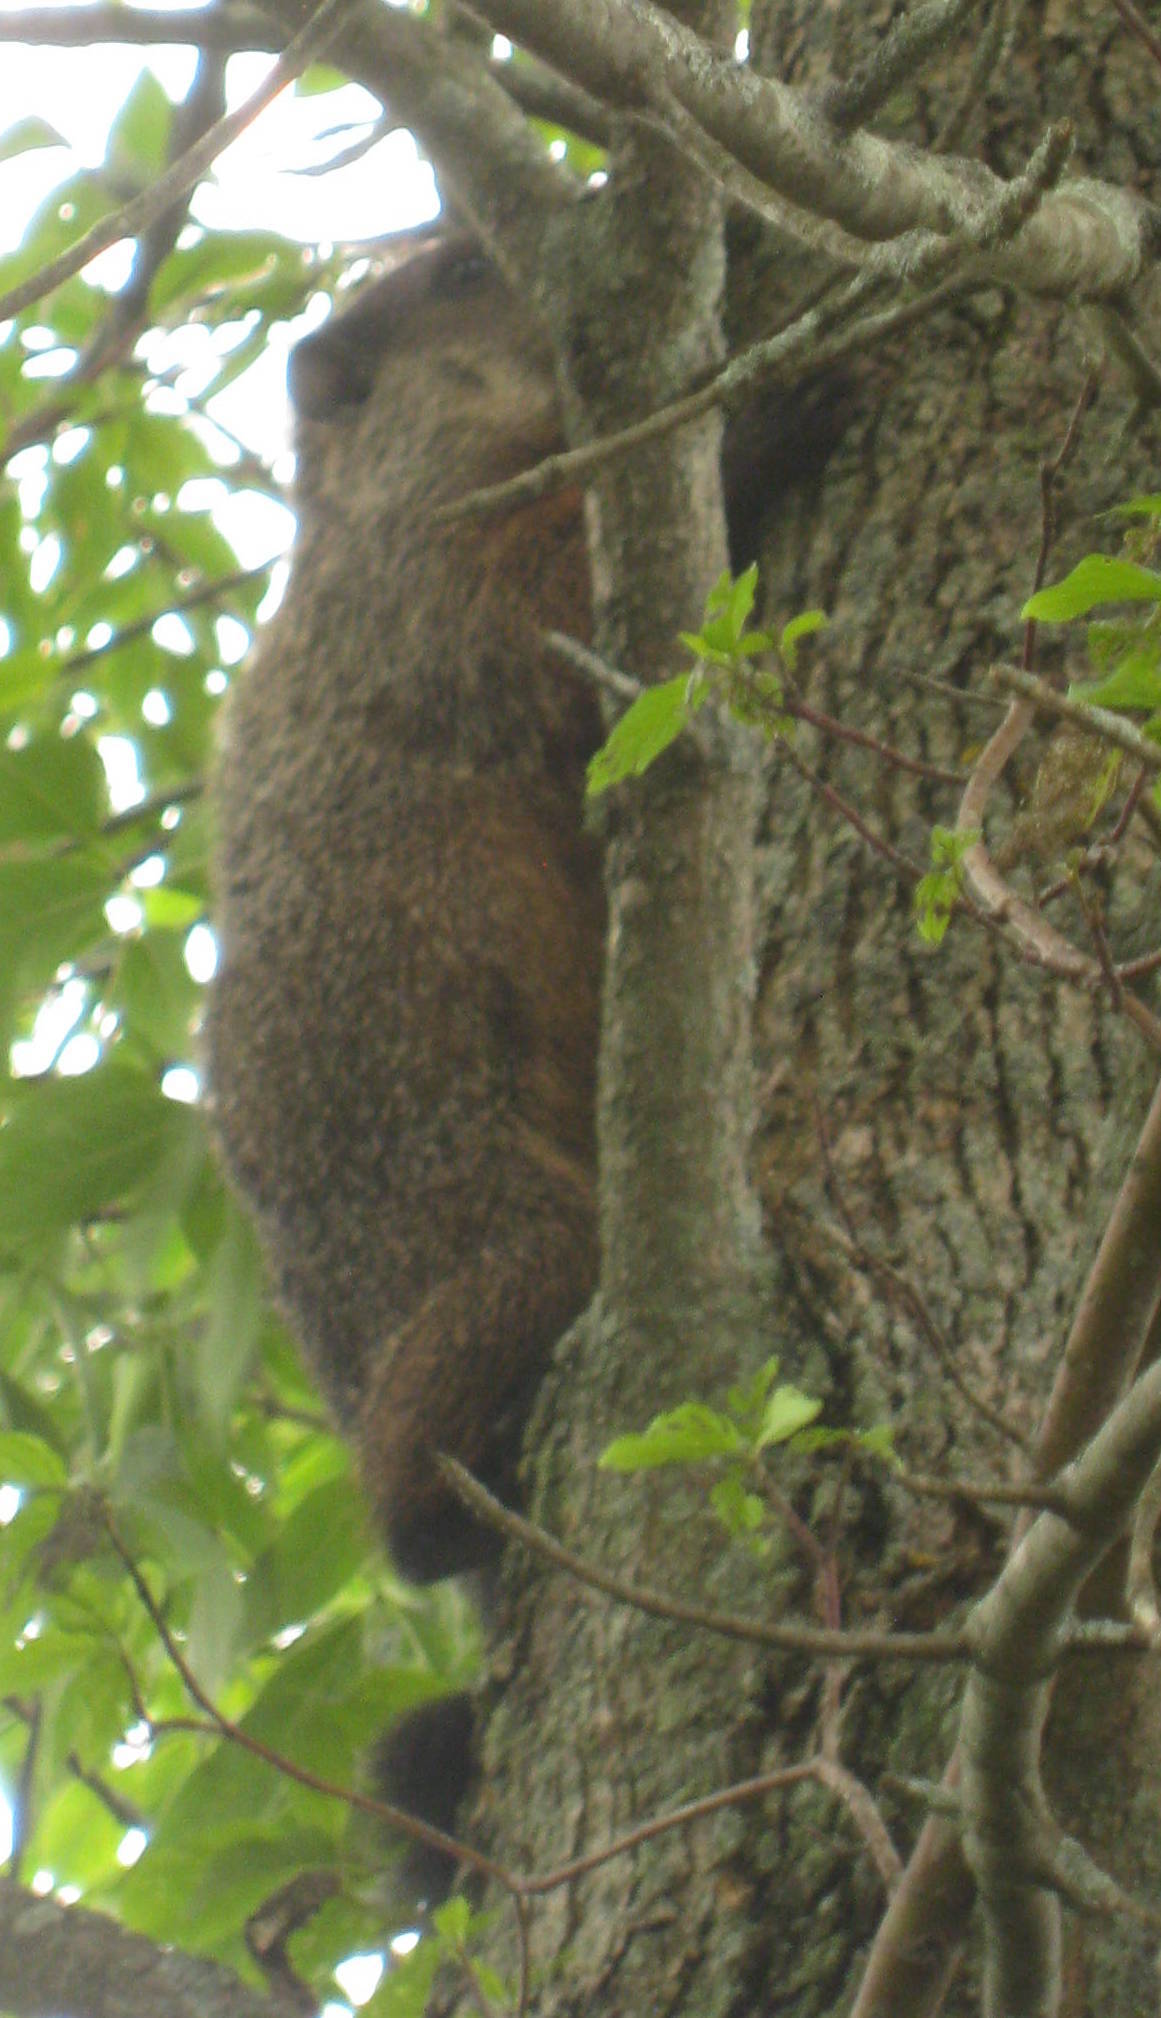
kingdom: Animalia
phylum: Chordata
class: Mammalia
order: Rodentia
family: Sciuridae
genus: Marmota
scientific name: Marmota monax
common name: Groundhog
